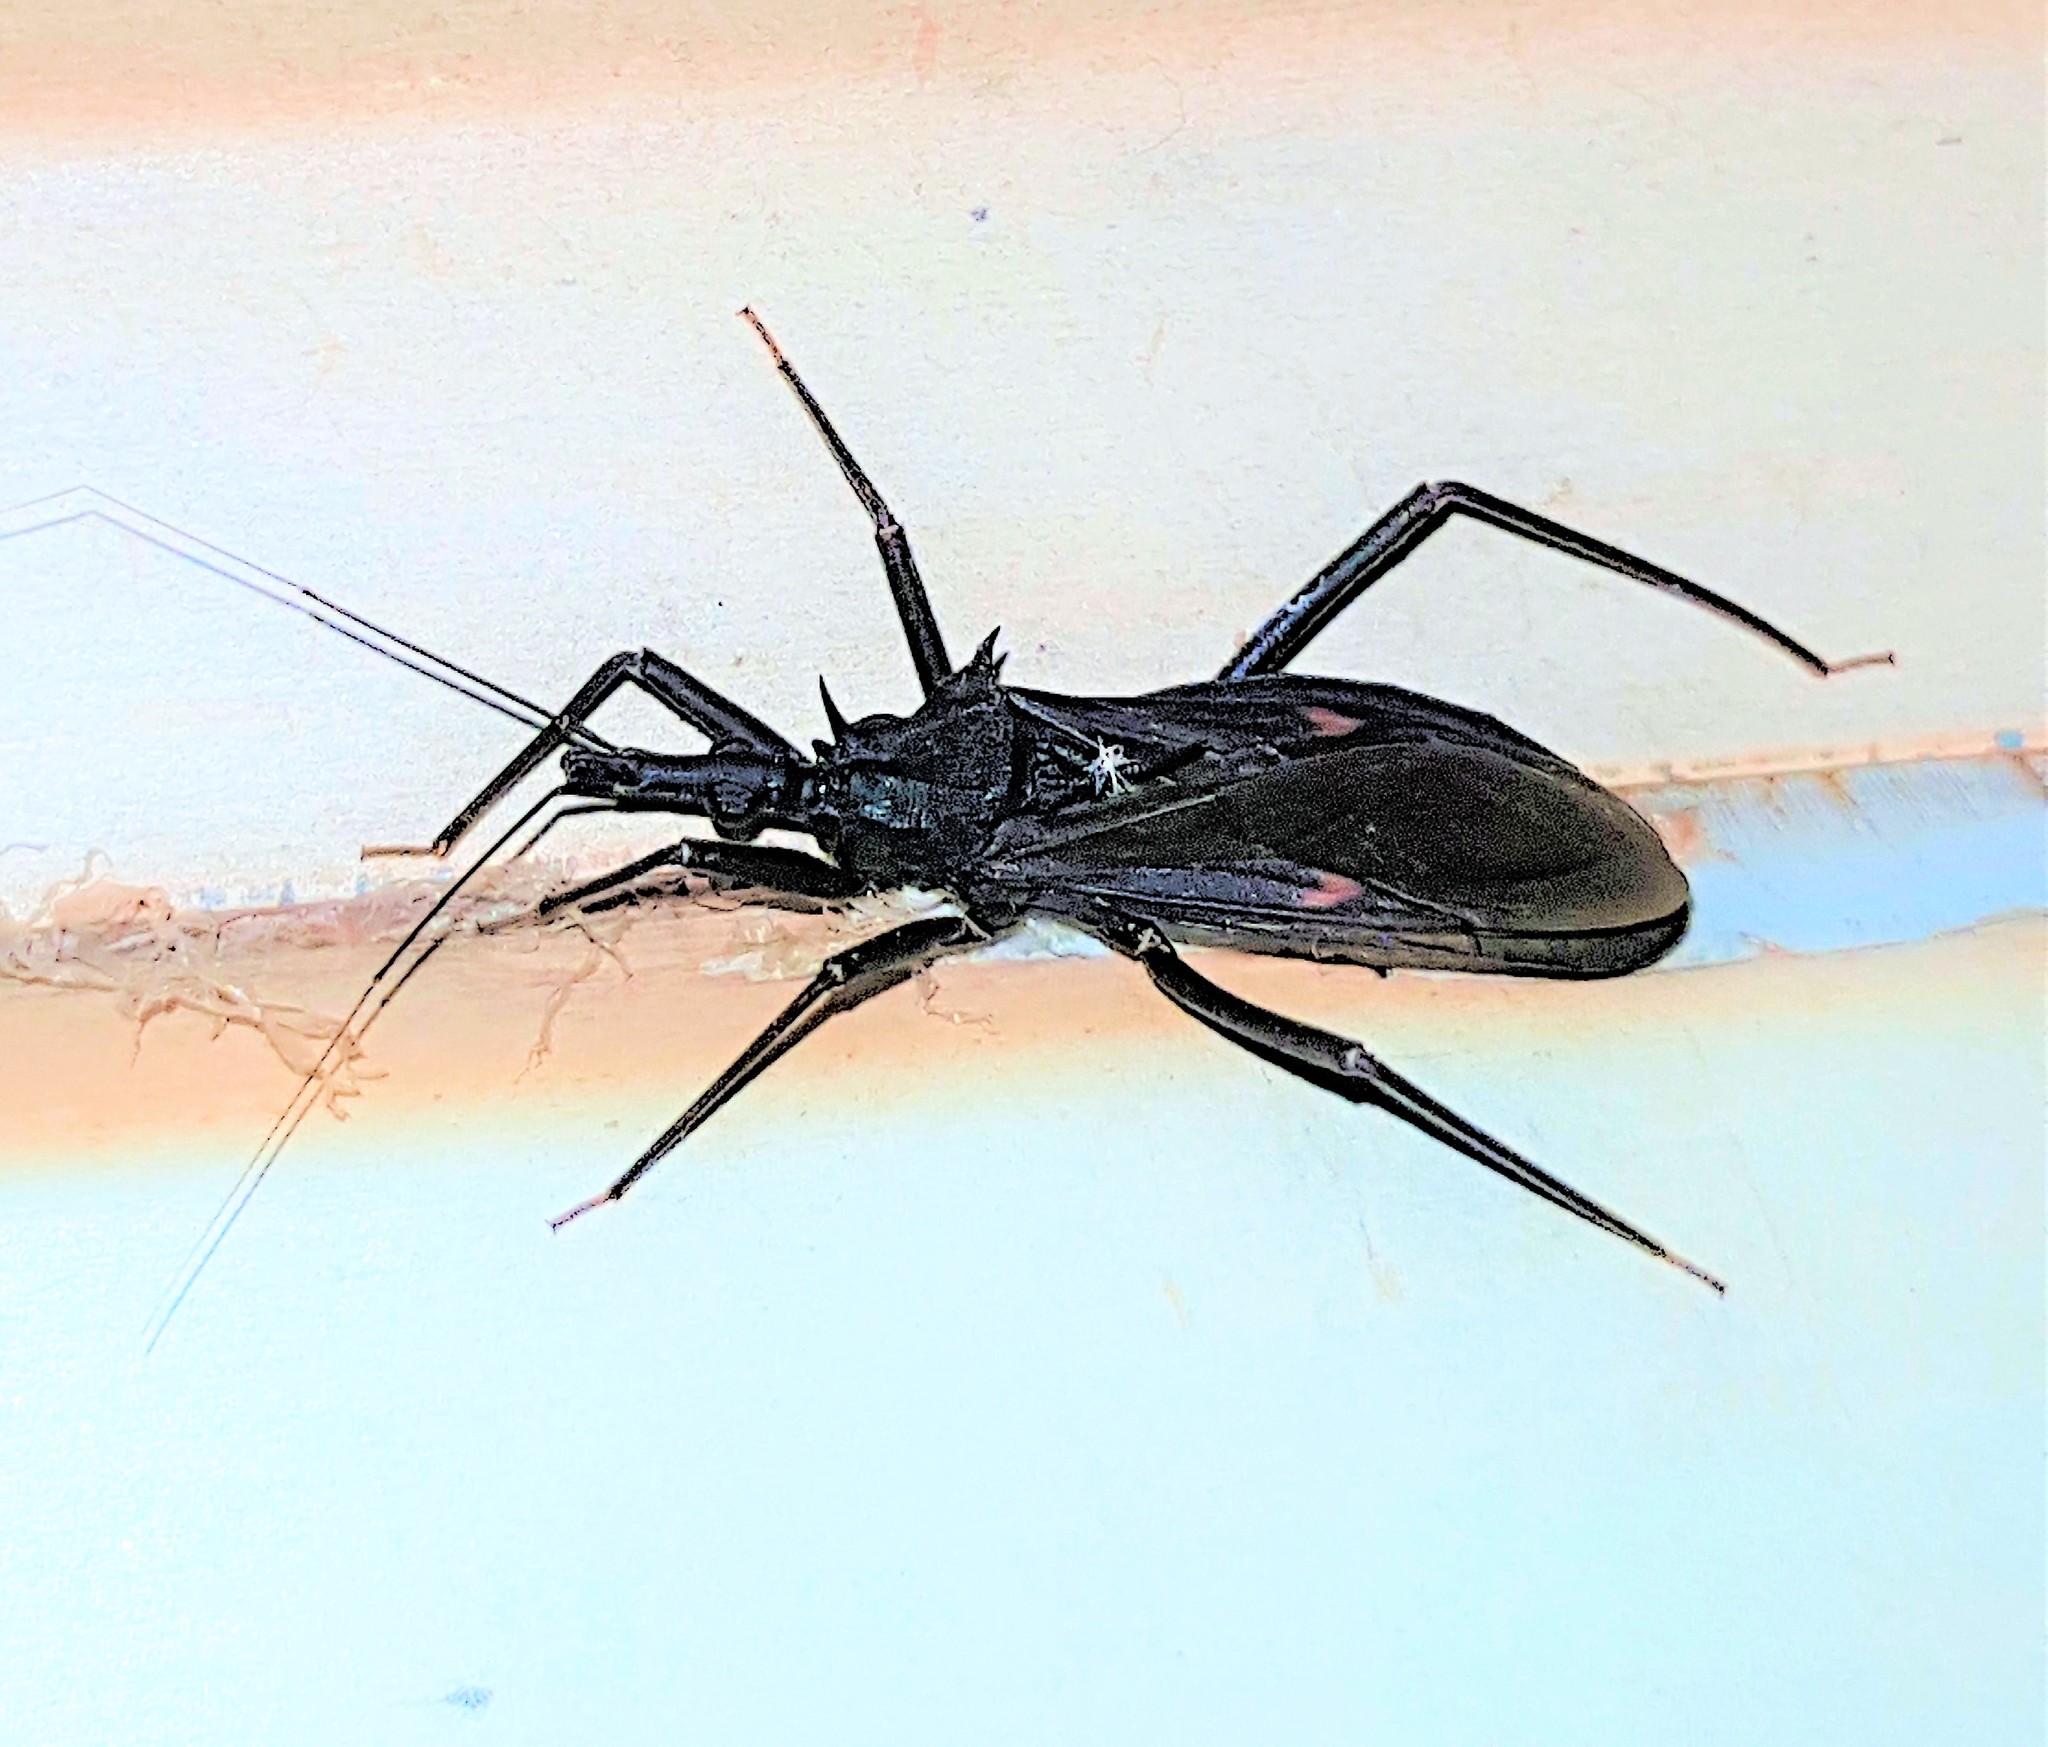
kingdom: Animalia
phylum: Arthropoda
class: Insecta
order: Hemiptera
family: Reduviidae
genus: Eratyrus
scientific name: Eratyrus mucronatus
